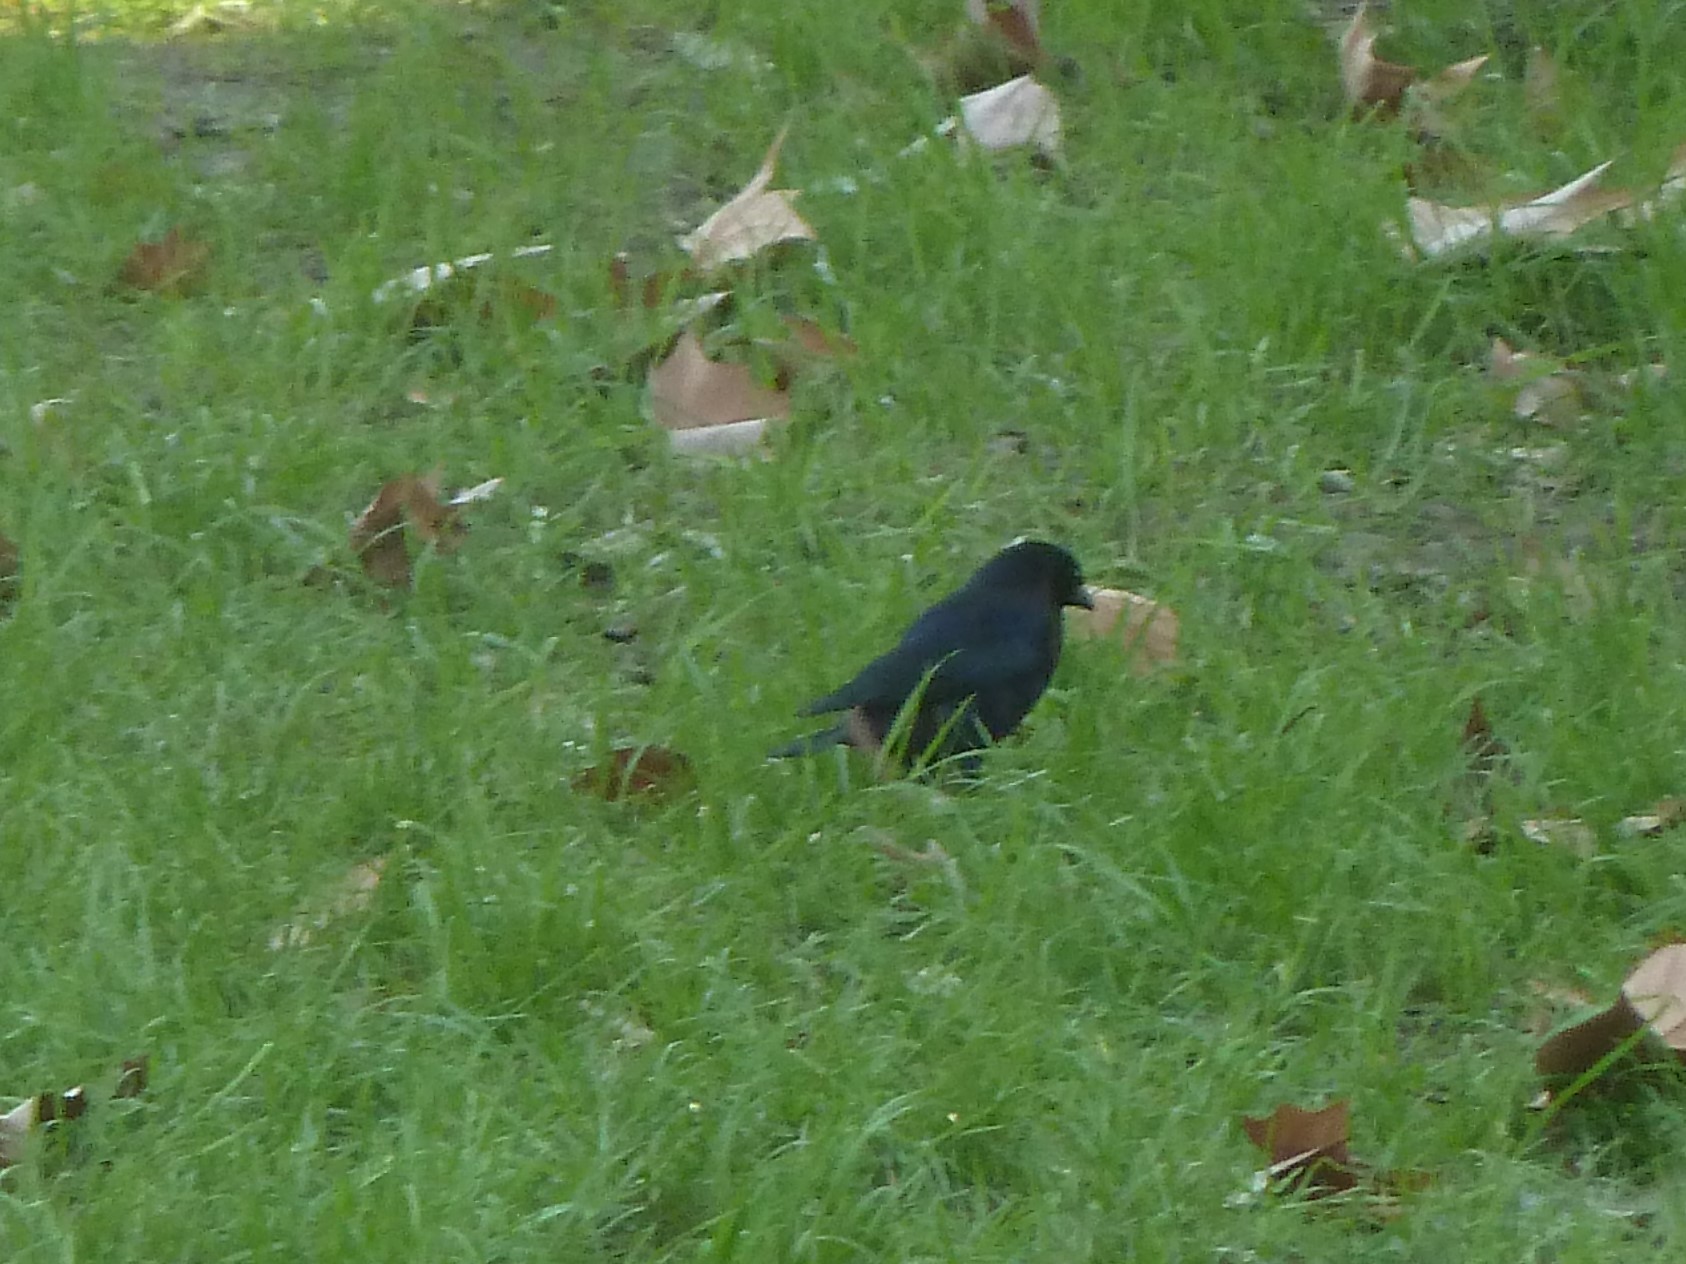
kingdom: Animalia
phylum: Chordata
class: Aves
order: Passeriformes
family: Icteridae
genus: Molothrus
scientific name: Molothrus bonariensis
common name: Shiny cowbird
